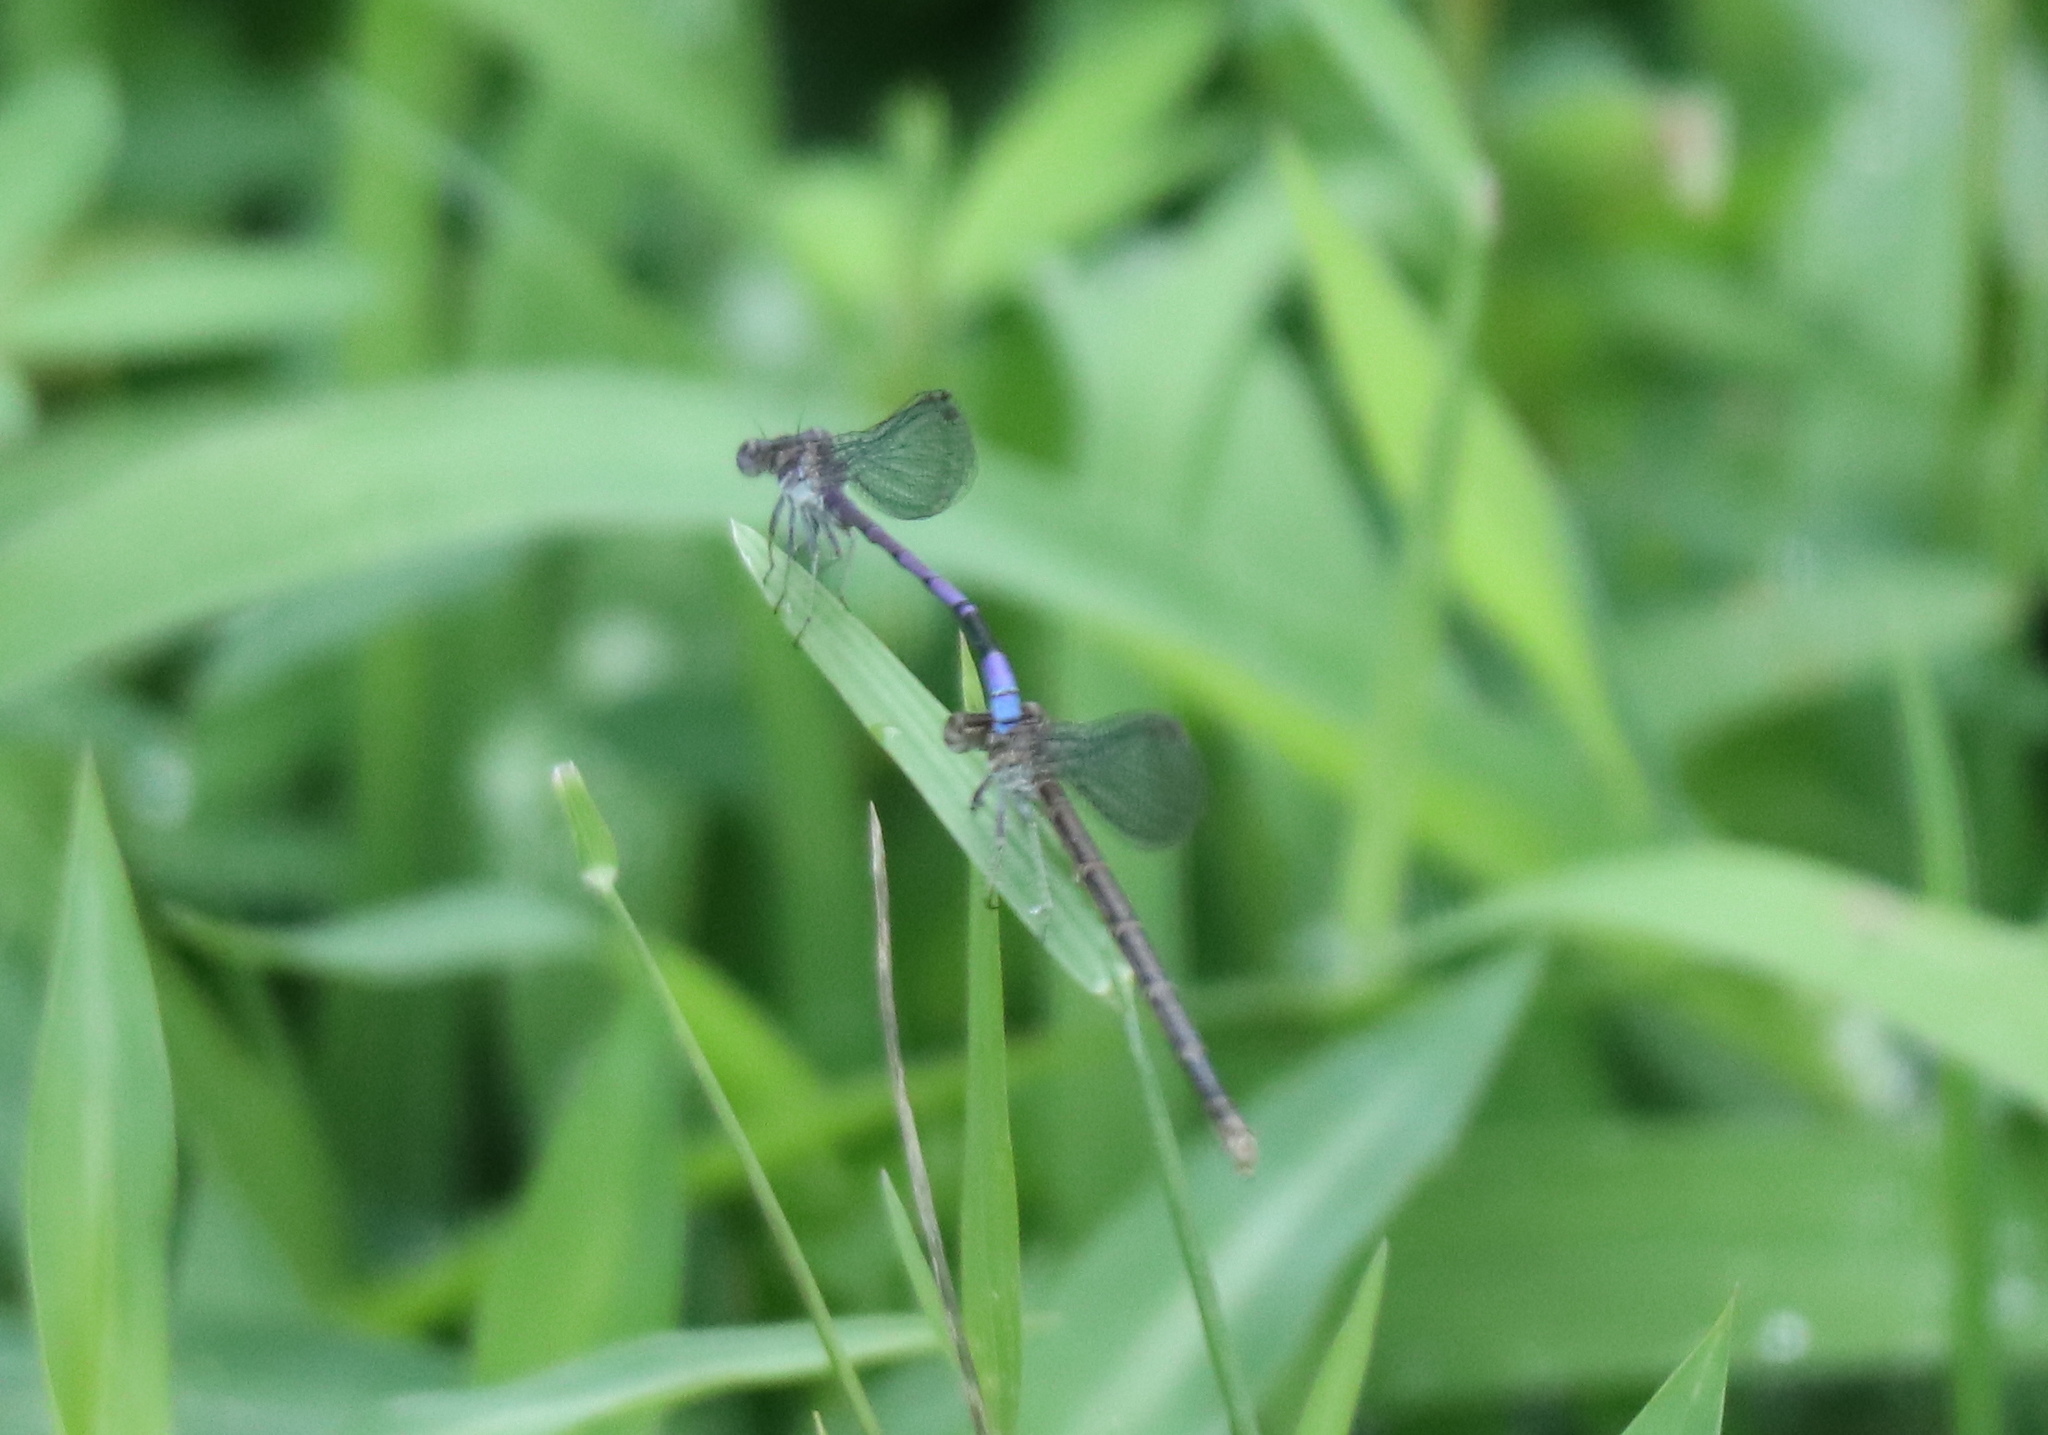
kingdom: Animalia
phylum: Arthropoda
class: Insecta
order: Odonata
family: Coenagrionidae
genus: Argia
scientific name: Argia fumipennis
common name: Variable dancer
